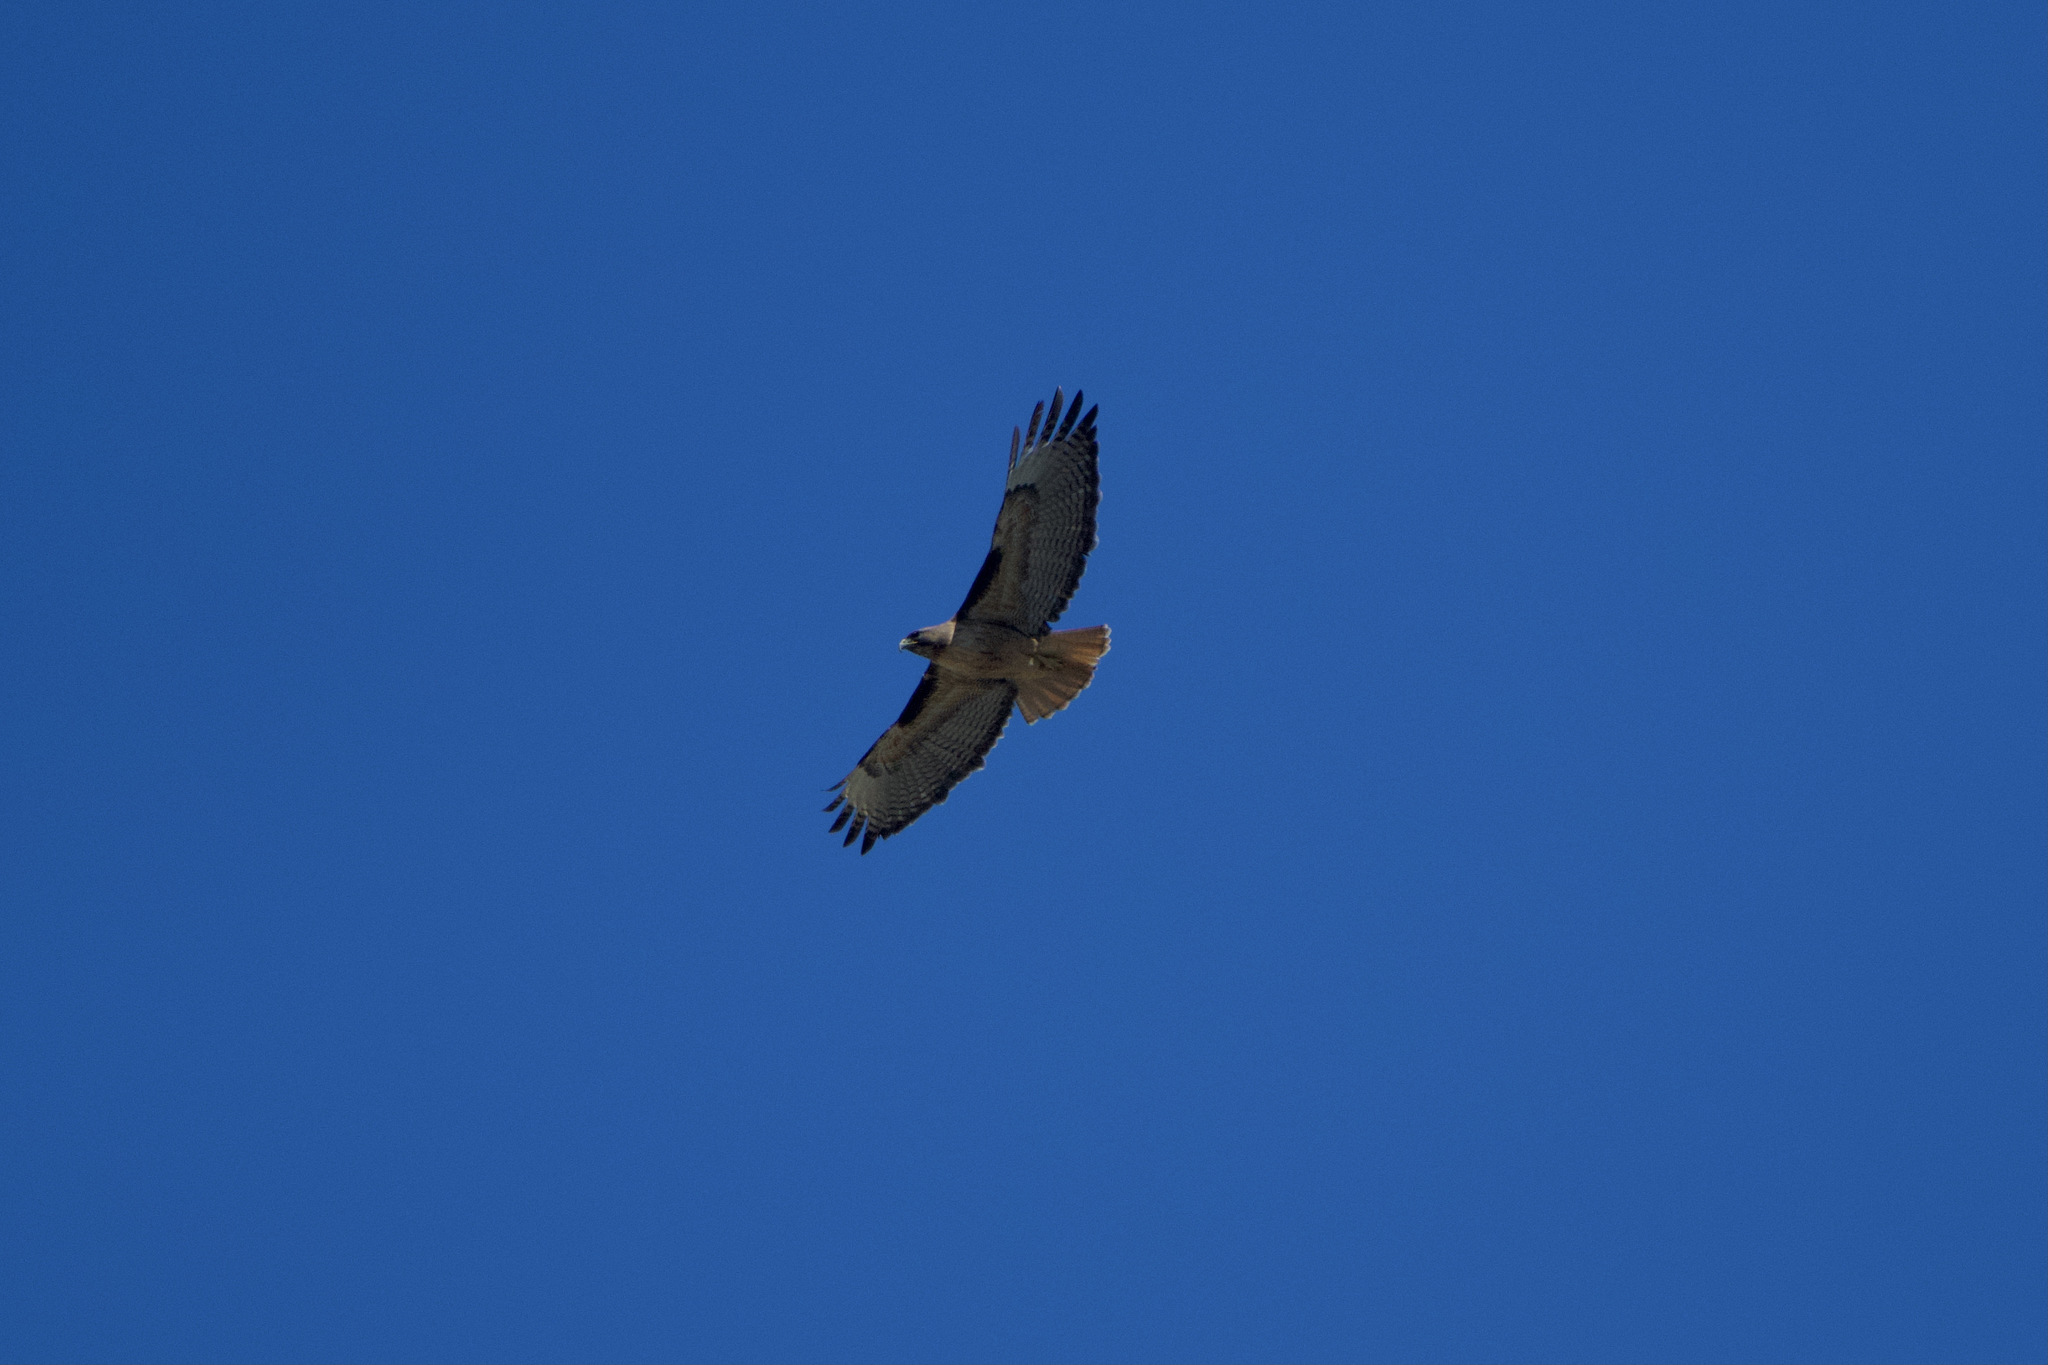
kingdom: Animalia
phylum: Chordata
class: Aves
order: Accipitriformes
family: Accipitridae
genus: Buteo
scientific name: Buteo jamaicensis
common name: Red-tailed hawk
